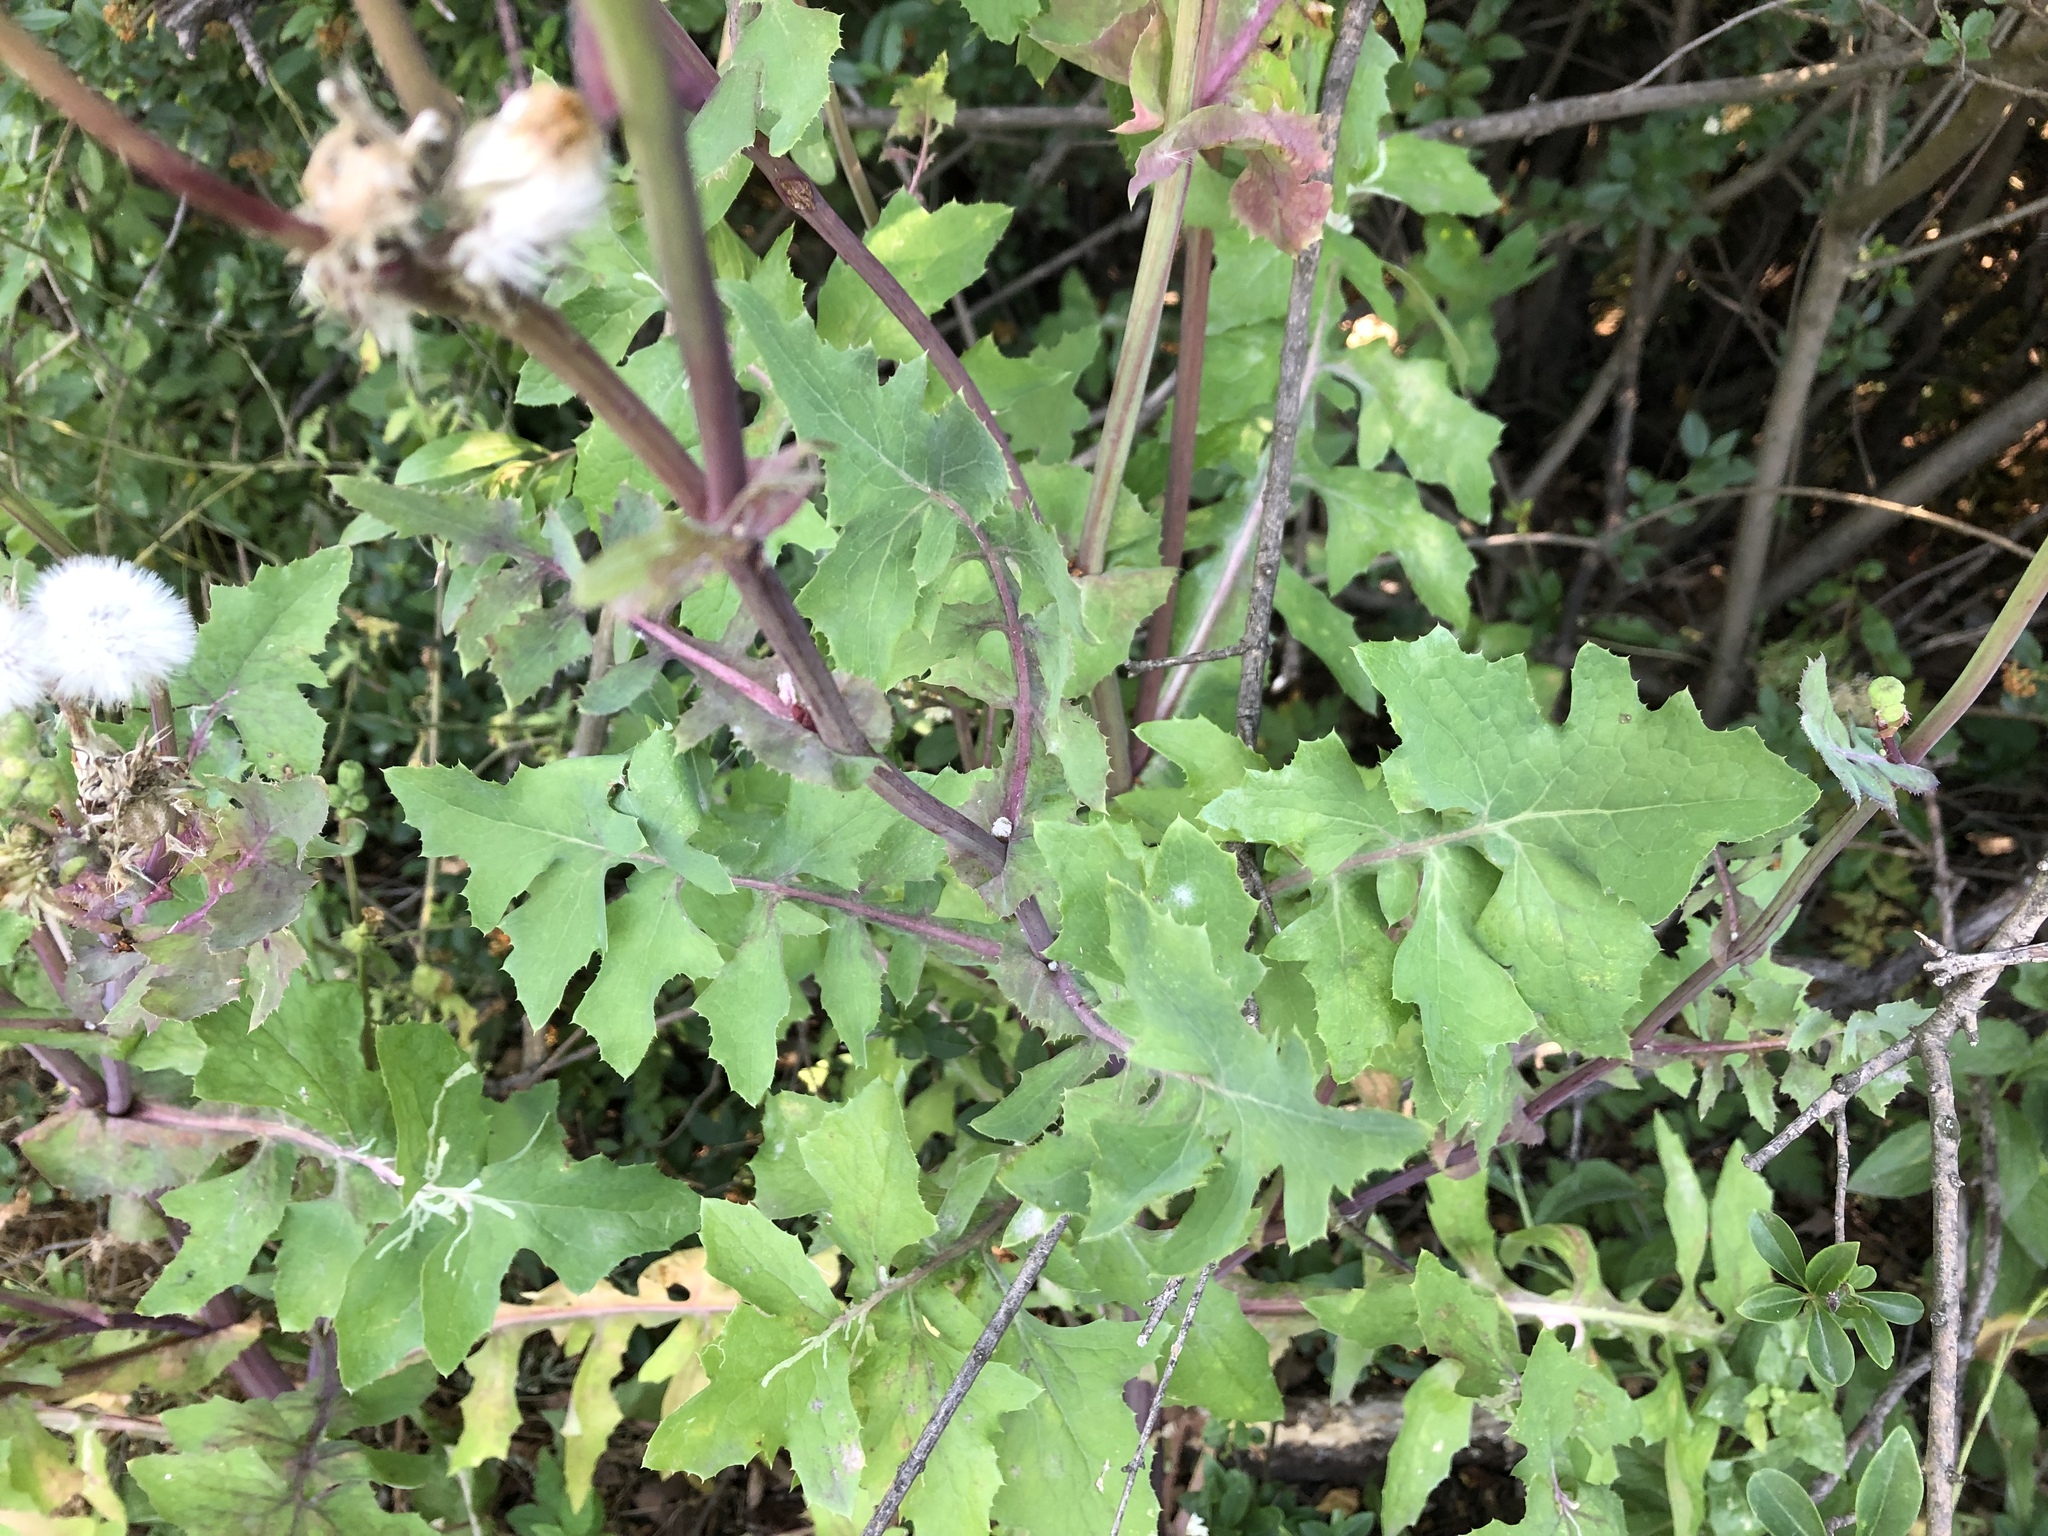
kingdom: Plantae
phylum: Tracheophyta
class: Magnoliopsida
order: Asterales
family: Asteraceae
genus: Sonchus
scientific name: Sonchus oleraceus
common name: Common sowthistle
